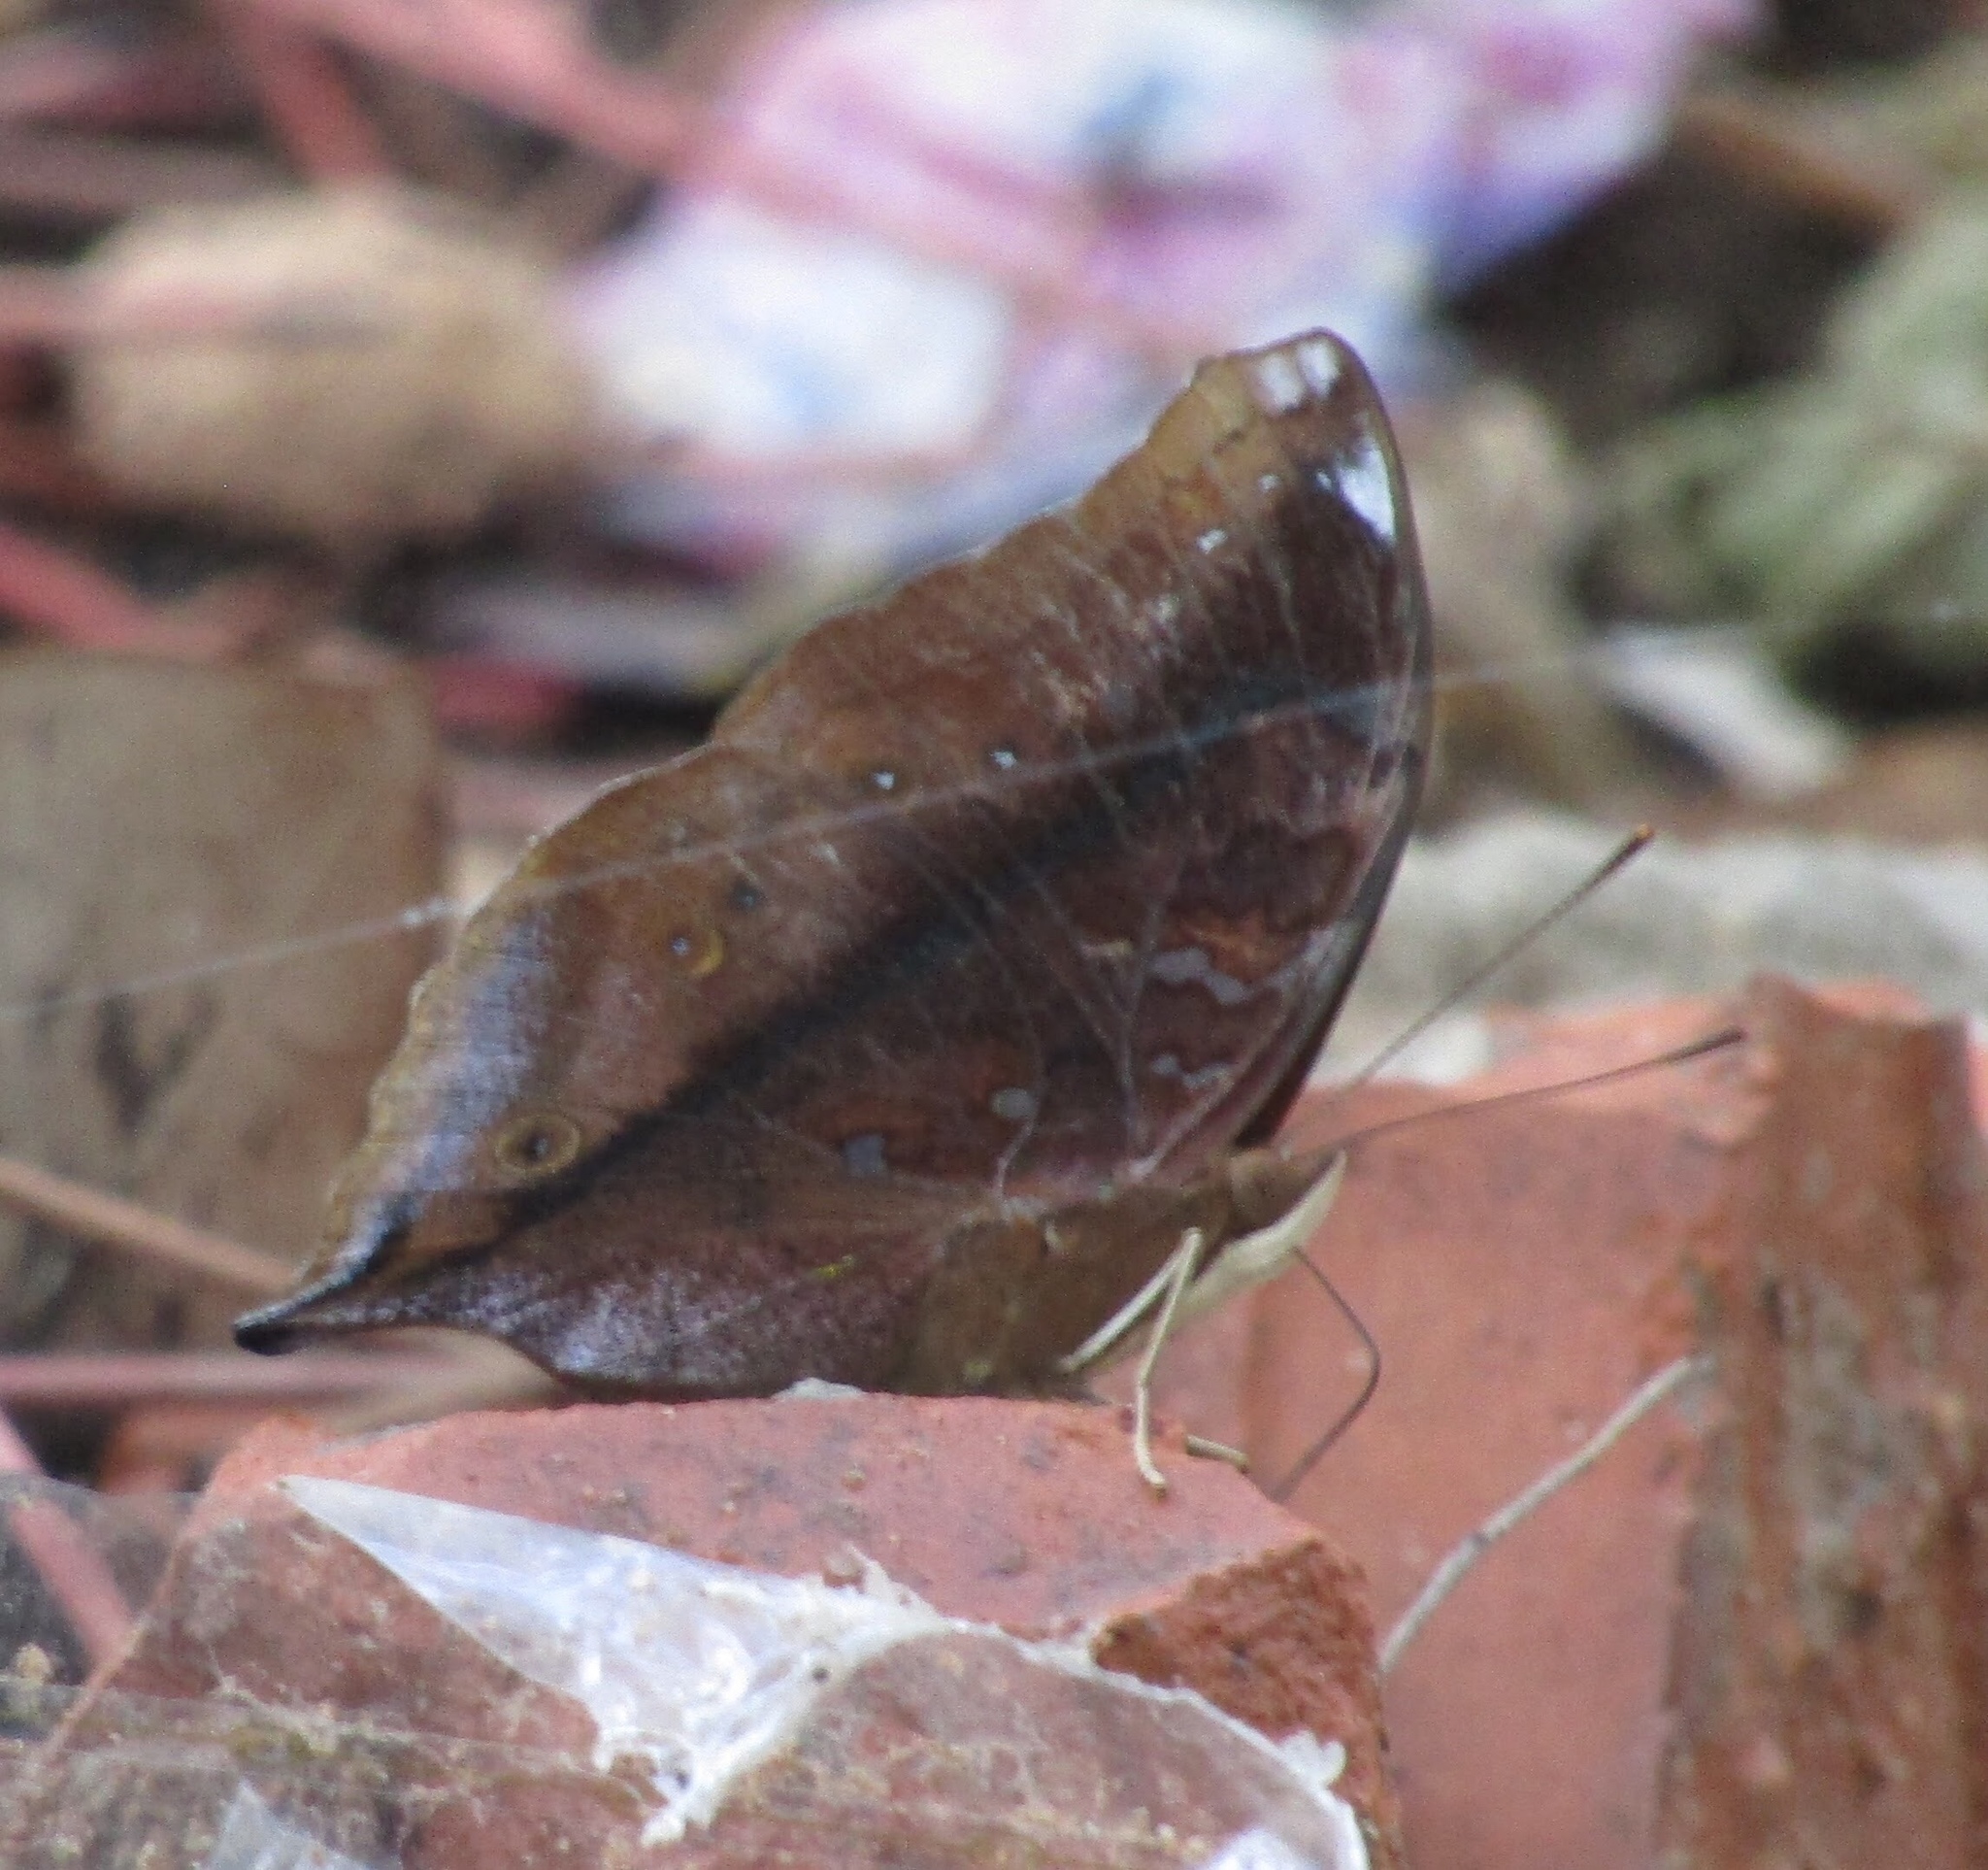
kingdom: Animalia
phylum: Arthropoda
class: Insecta
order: Lepidoptera
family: Nymphalidae
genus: Doleschallia
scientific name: Doleschallia bisaltide
